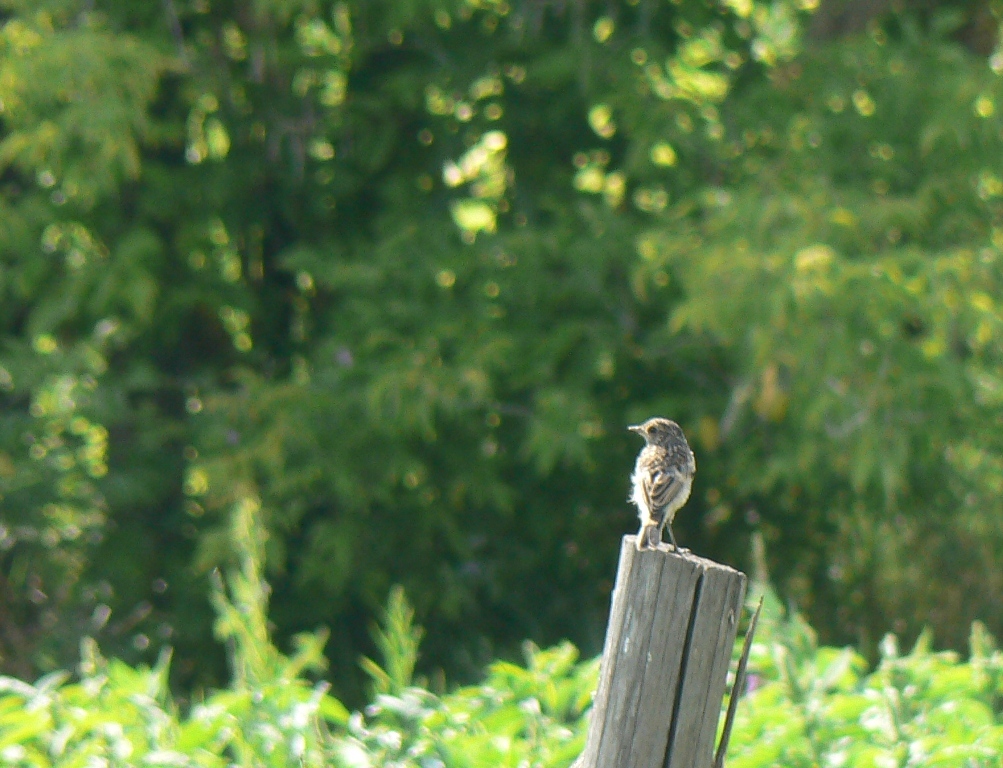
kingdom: Animalia
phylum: Chordata
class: Aves
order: Passeriformes
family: Muscicapidae
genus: Saxicola
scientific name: Saxicola maurus
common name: Siberian stonechat
